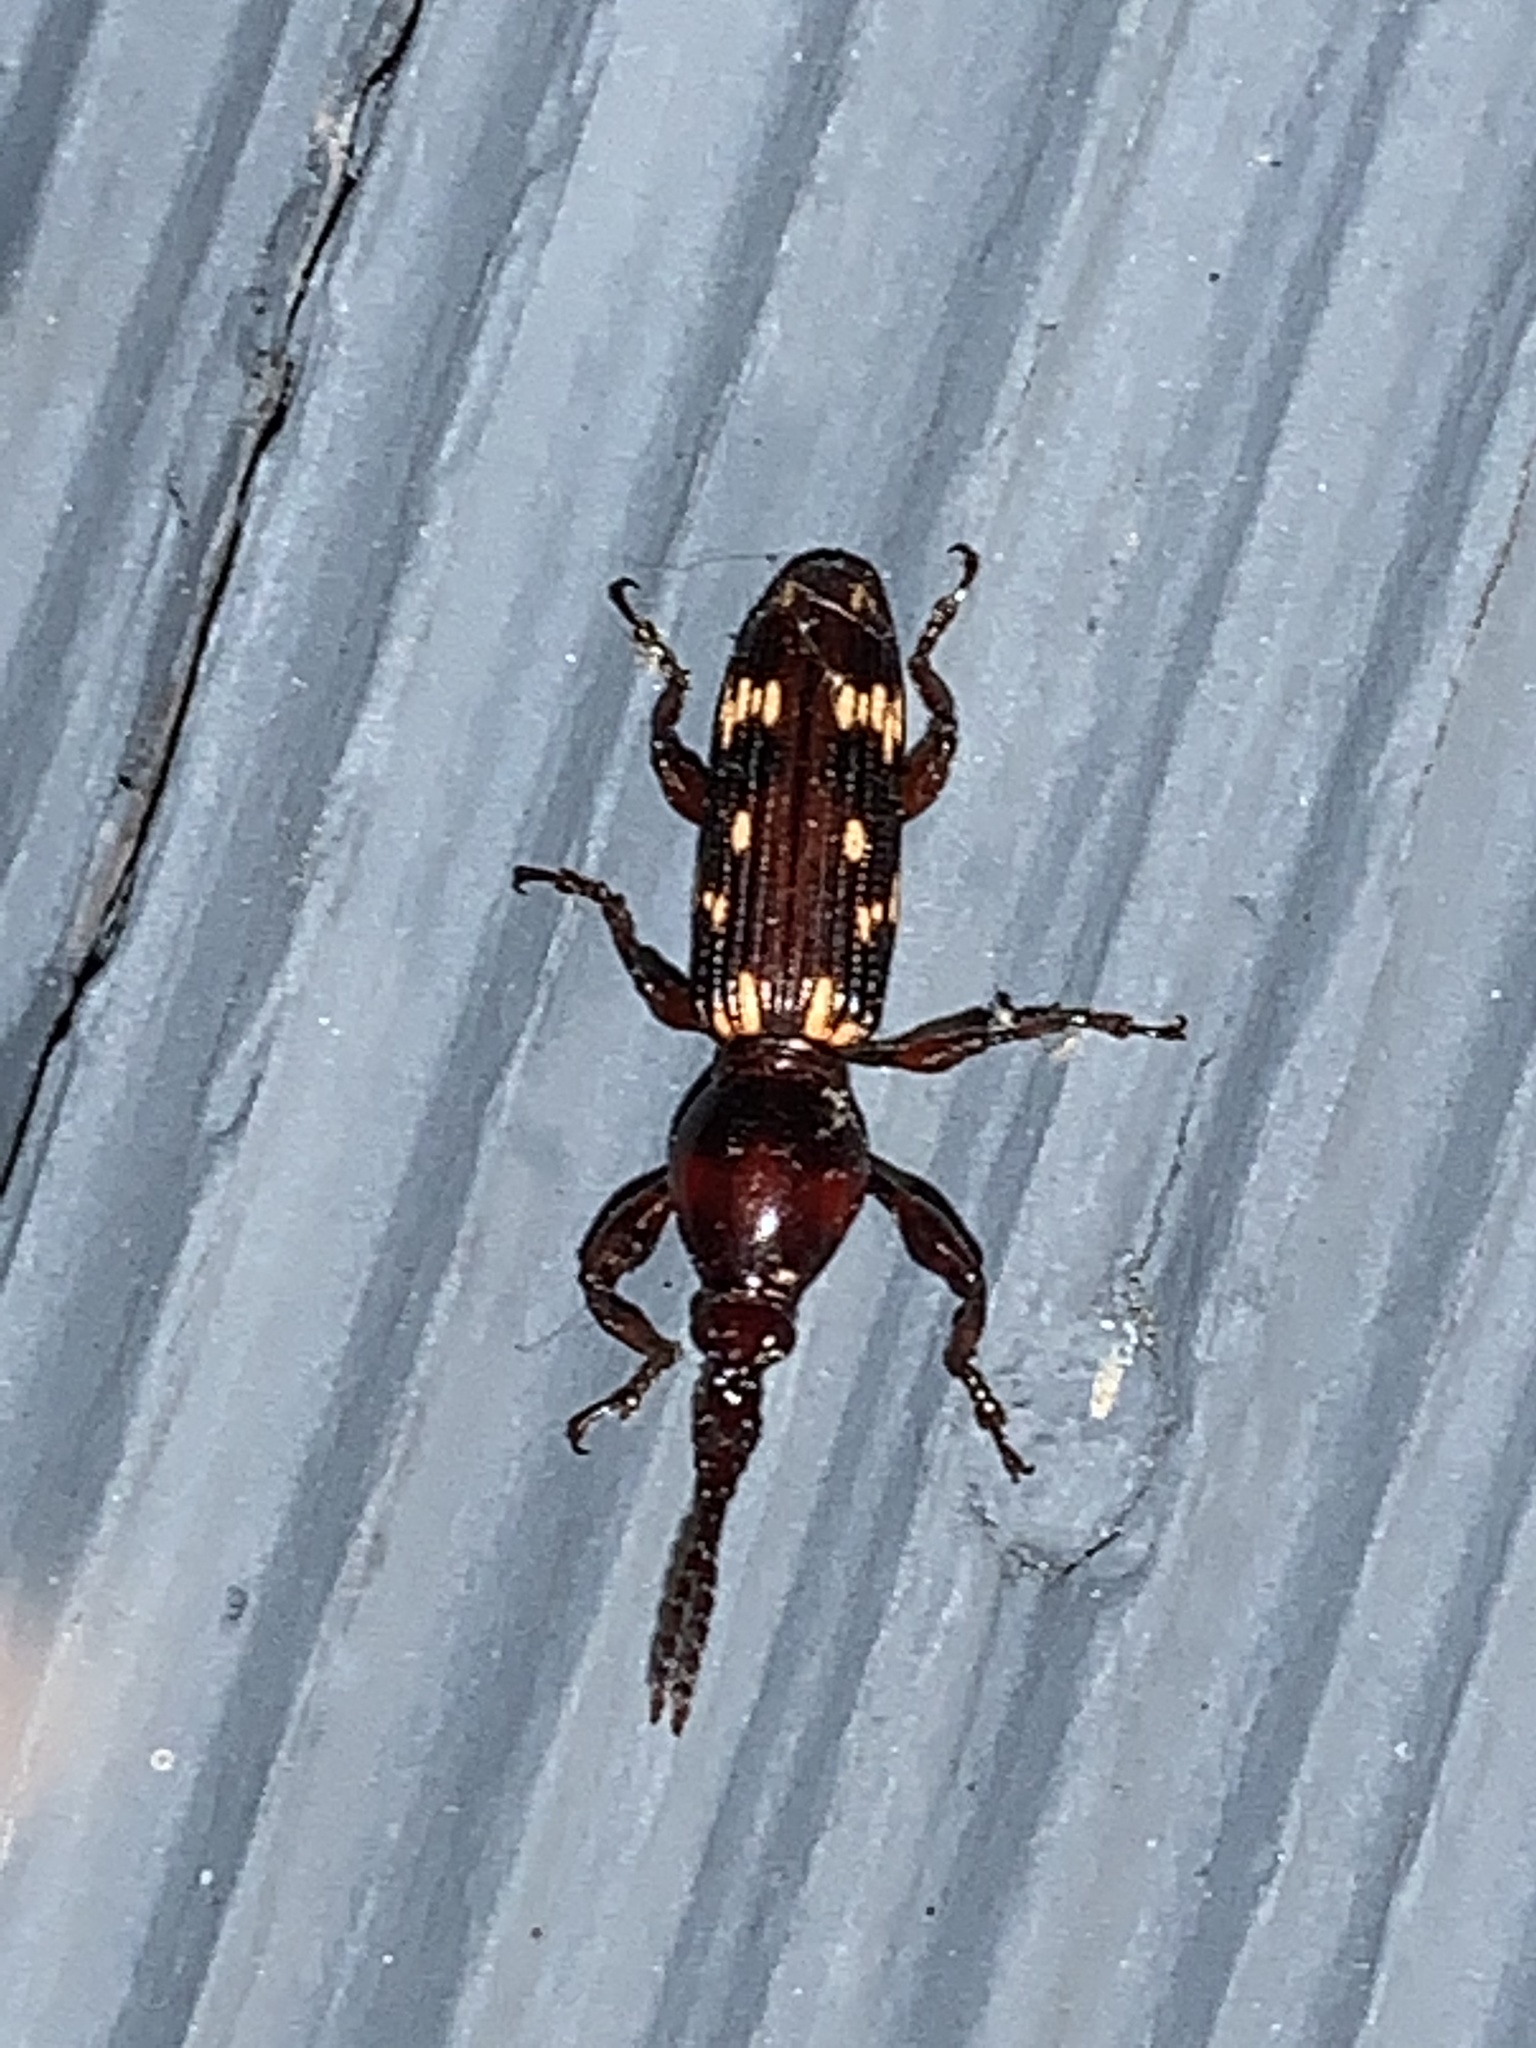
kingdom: Animalia
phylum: Arthropoda
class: Insecta
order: Coleoptera
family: Brentidae
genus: Arrenodes
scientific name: Arrenodes minutus
